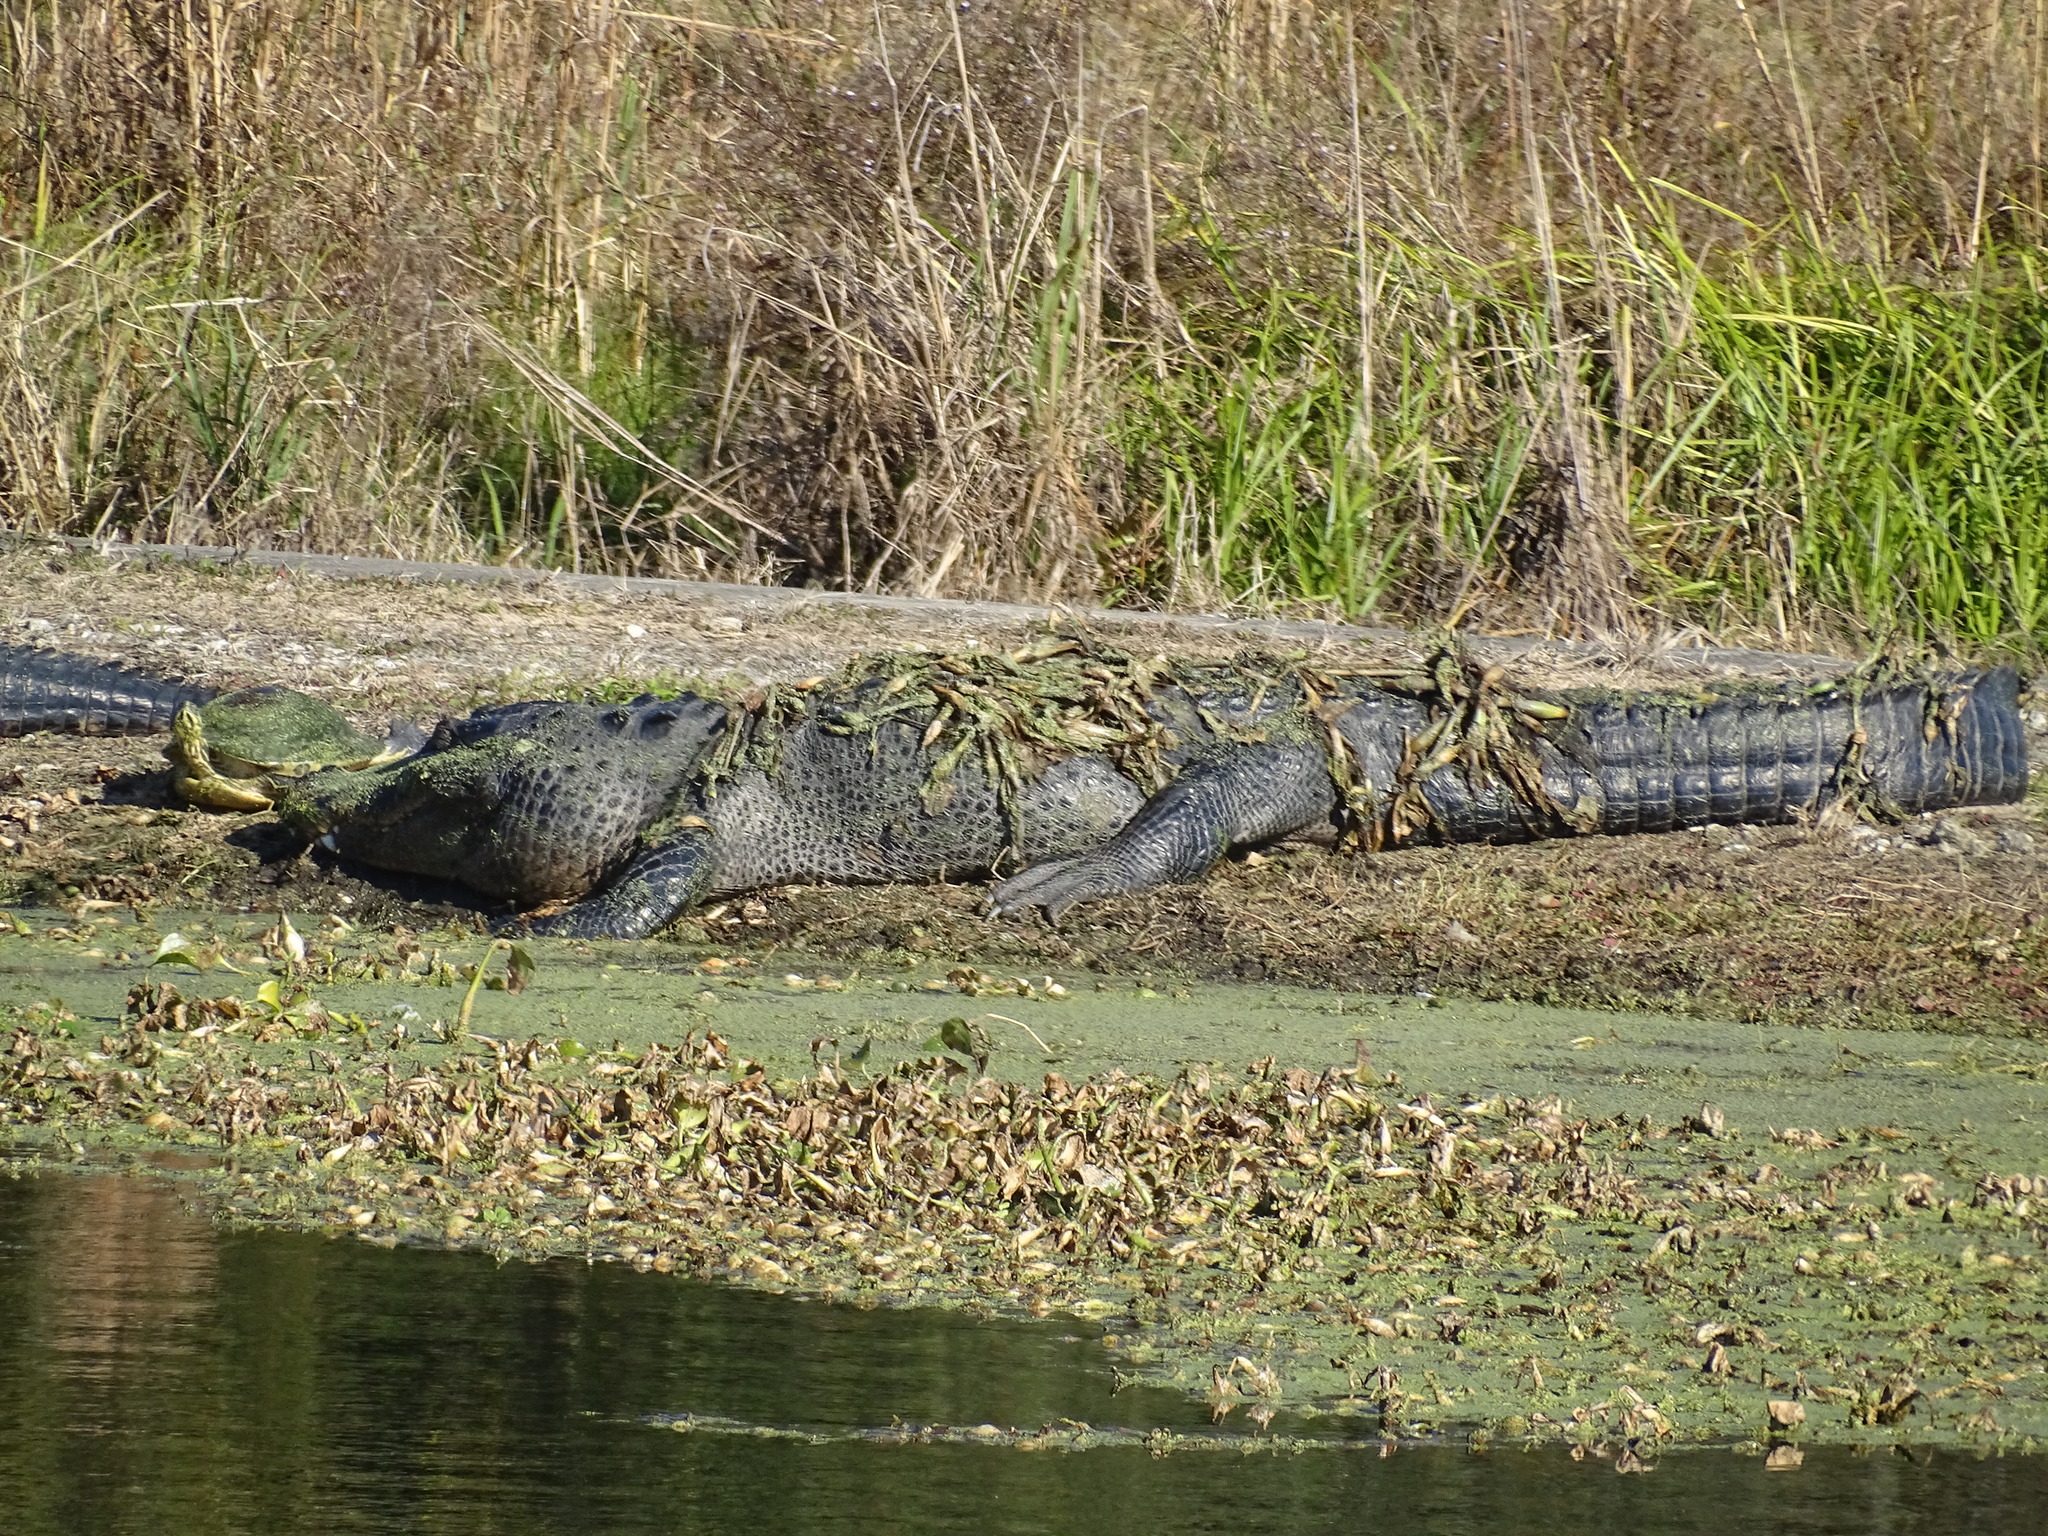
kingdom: Animalia
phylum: Chordata
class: Crocodylia
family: Alligatoridae
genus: Alligator
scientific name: Alligator mississippiensis
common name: American alligator
